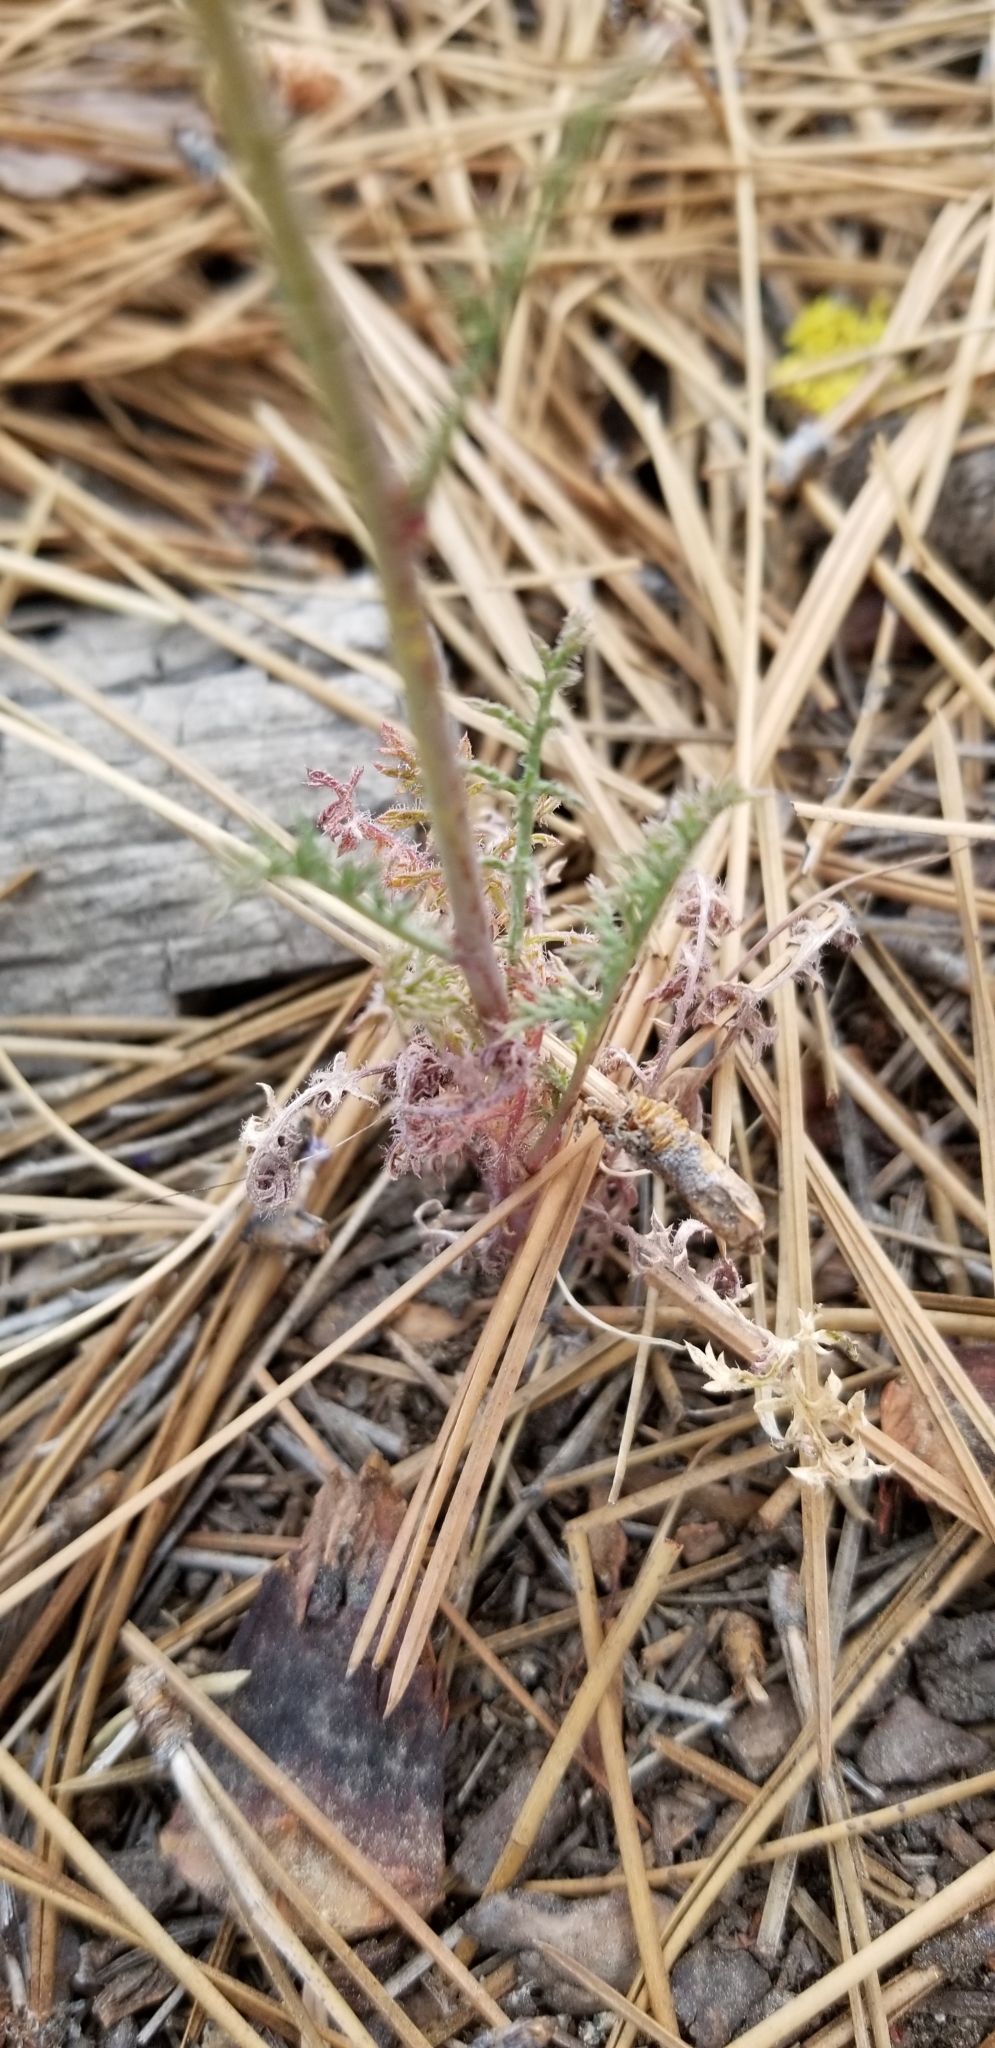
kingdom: Plantae
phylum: Tracheophyta
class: Magnoliopsida
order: Ericales
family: Polemoniaceae
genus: Saltugilia
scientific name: Saltugilia splendens
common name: Grinnell's gilia
